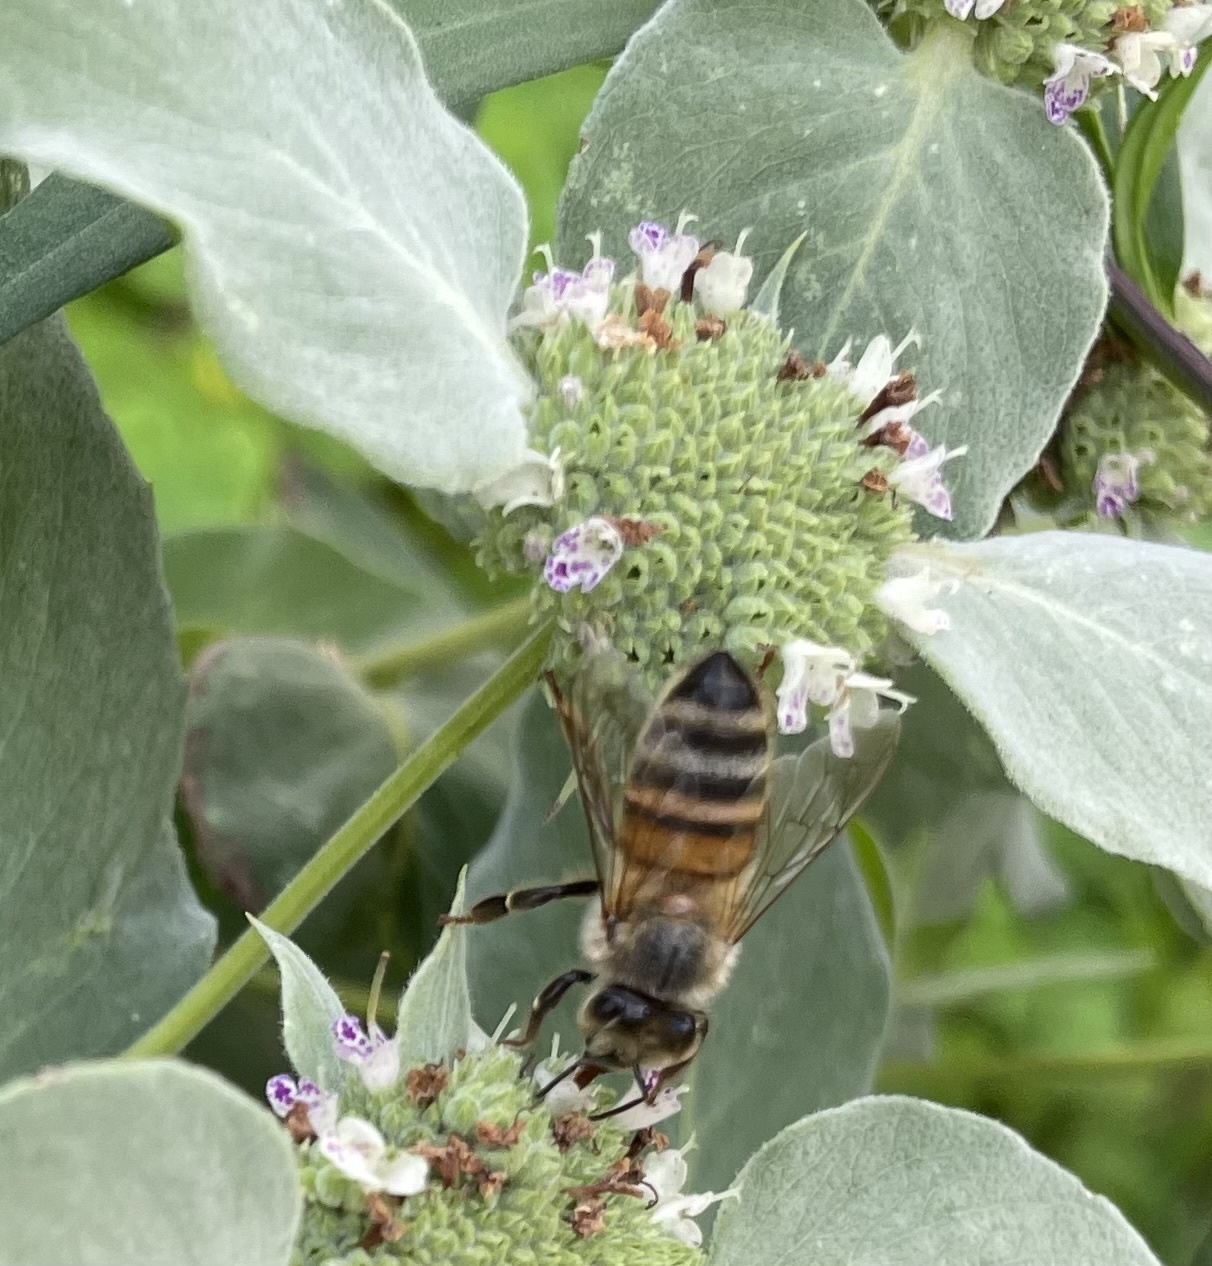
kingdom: Animalia
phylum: Arthropoda
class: Insecta
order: Hymenoptera
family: Apidae
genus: Apis
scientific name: Apis mellifera
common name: Honey bee
